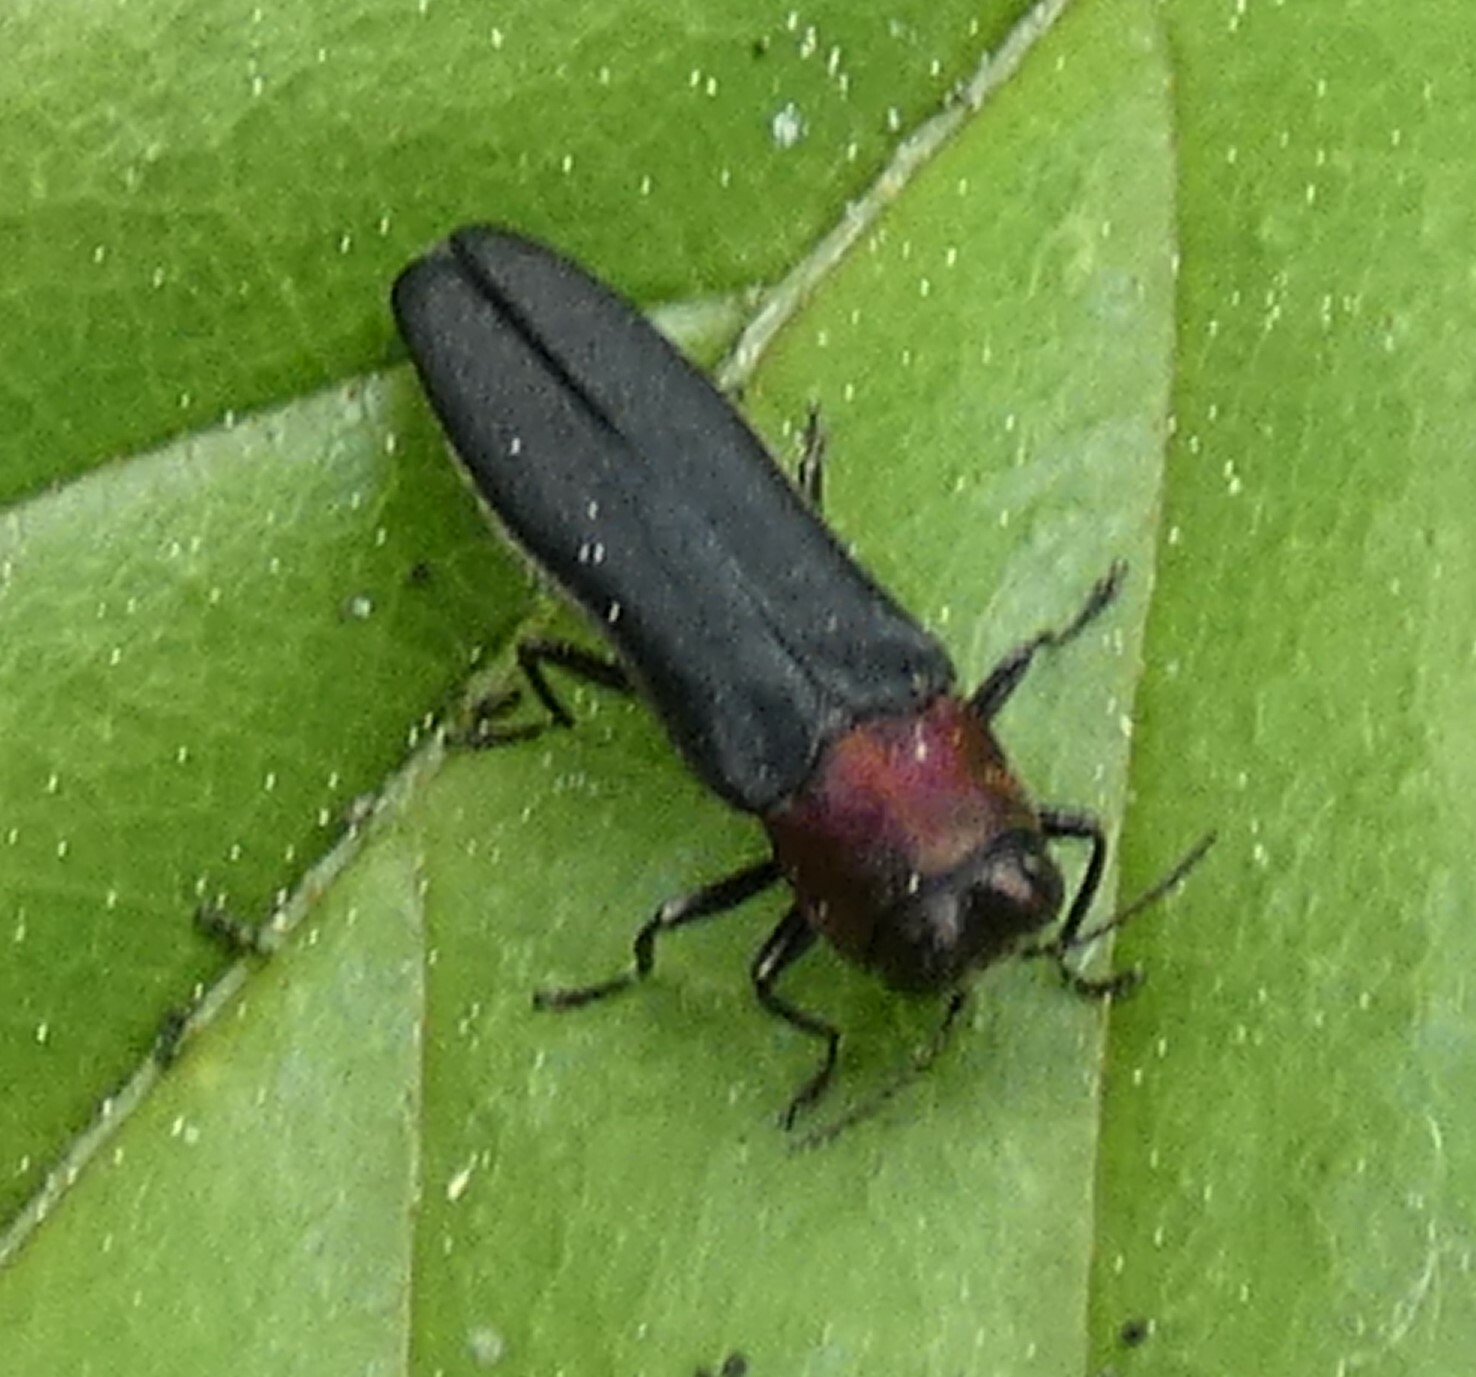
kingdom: Animalia
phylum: Arthropoda
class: Insecta
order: Coleoptera
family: Buprestidae
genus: Agrilus
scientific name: Agrilus ruficollis
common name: Red-necked cane borer beetle
